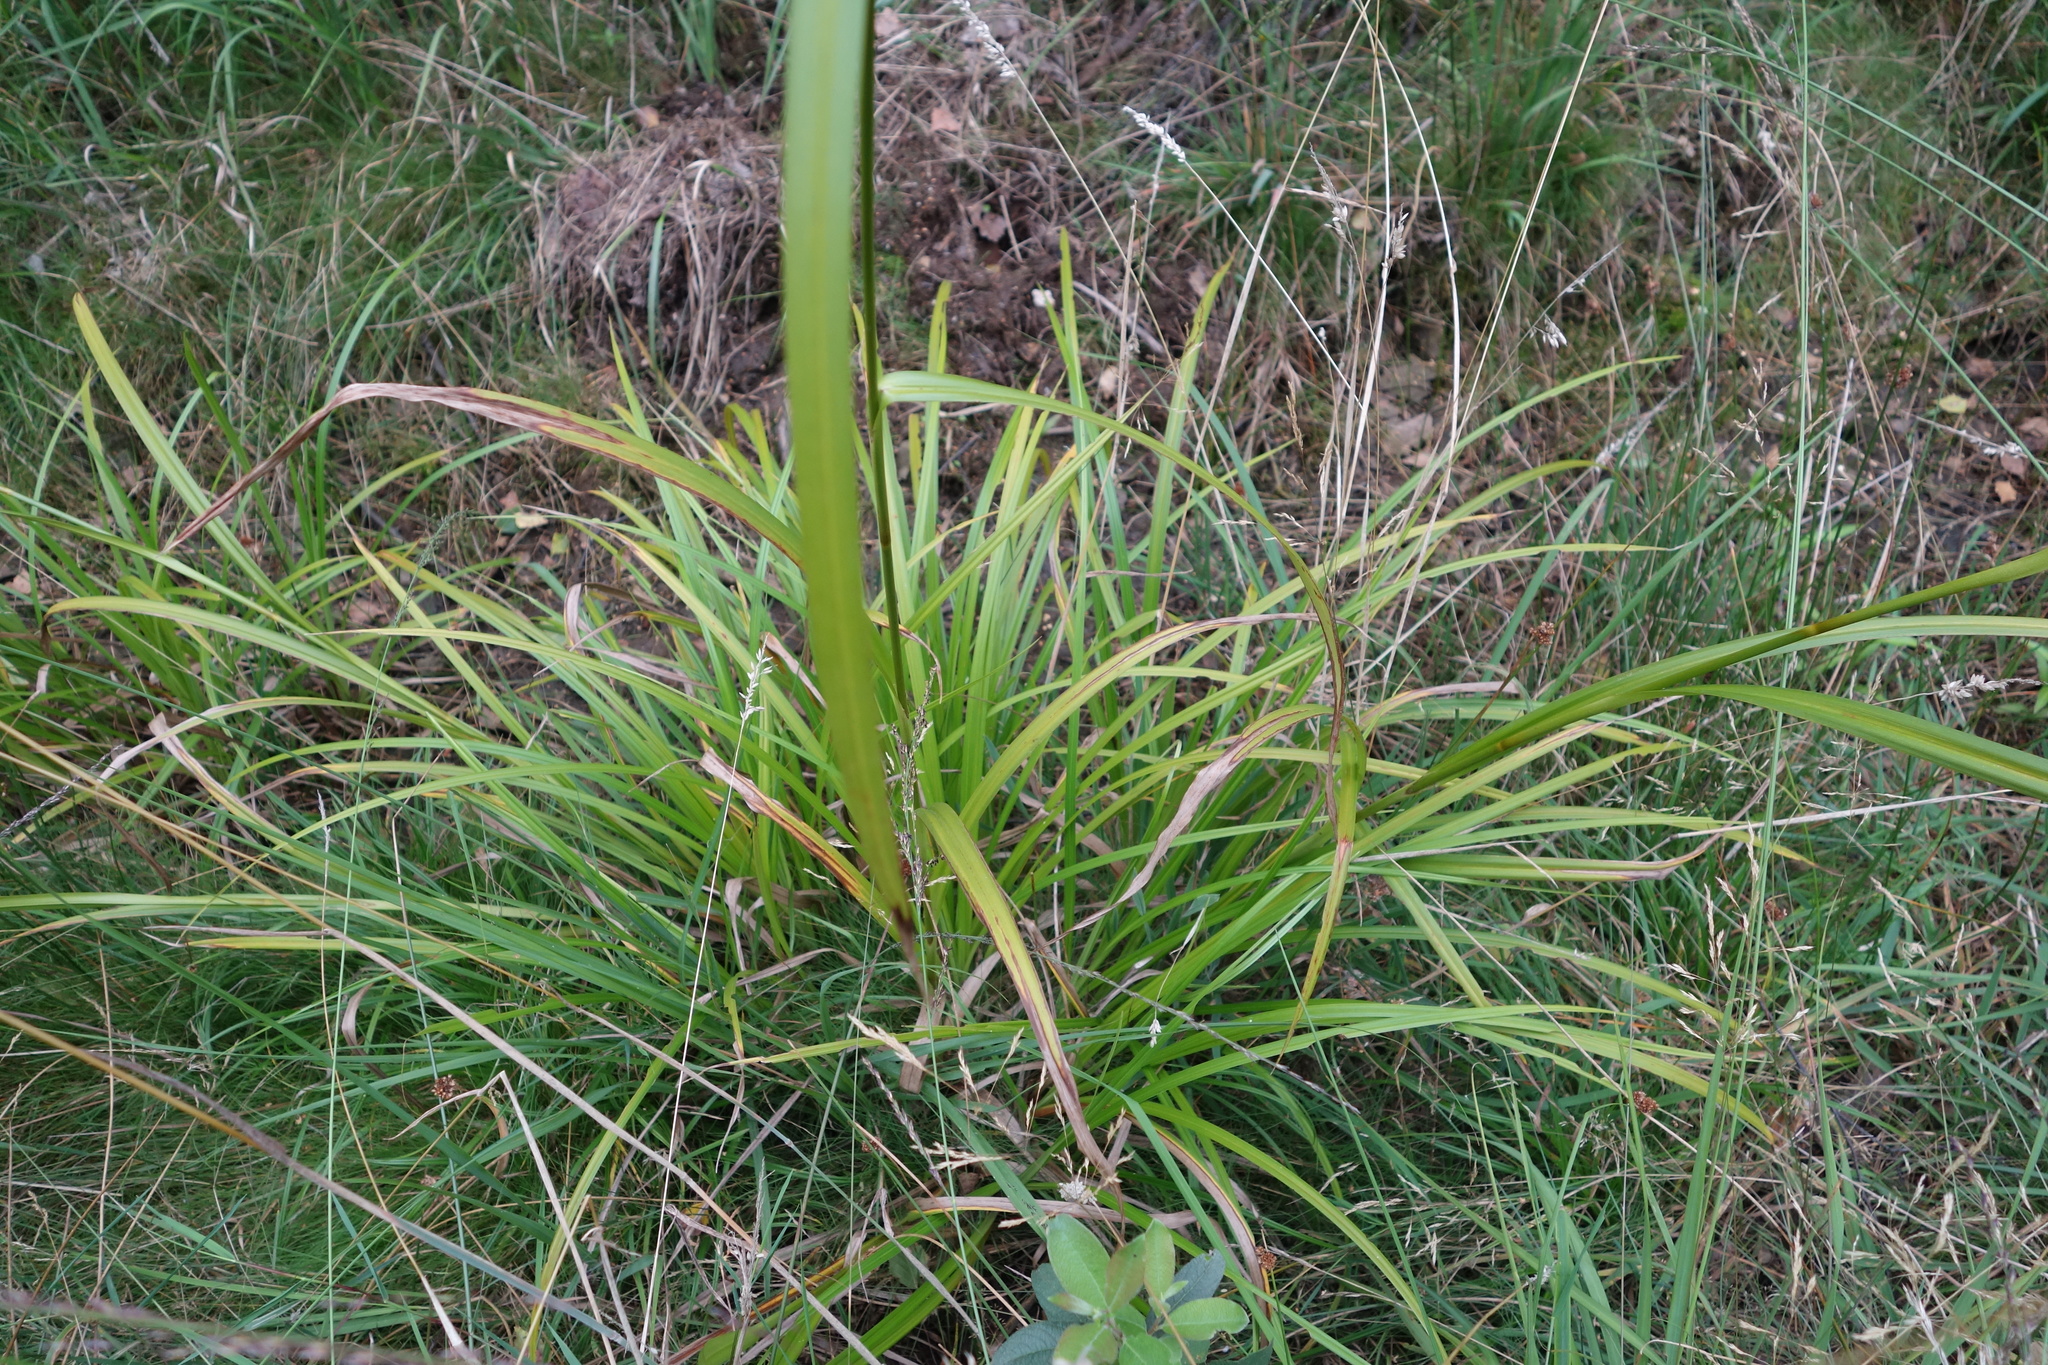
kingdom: Plantae
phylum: Tracheophyta
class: Liliopsida
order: Poales
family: Cyperaceae
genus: Scirpus
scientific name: Scirpus georgianus
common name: Bristleless dark-green bulrush
